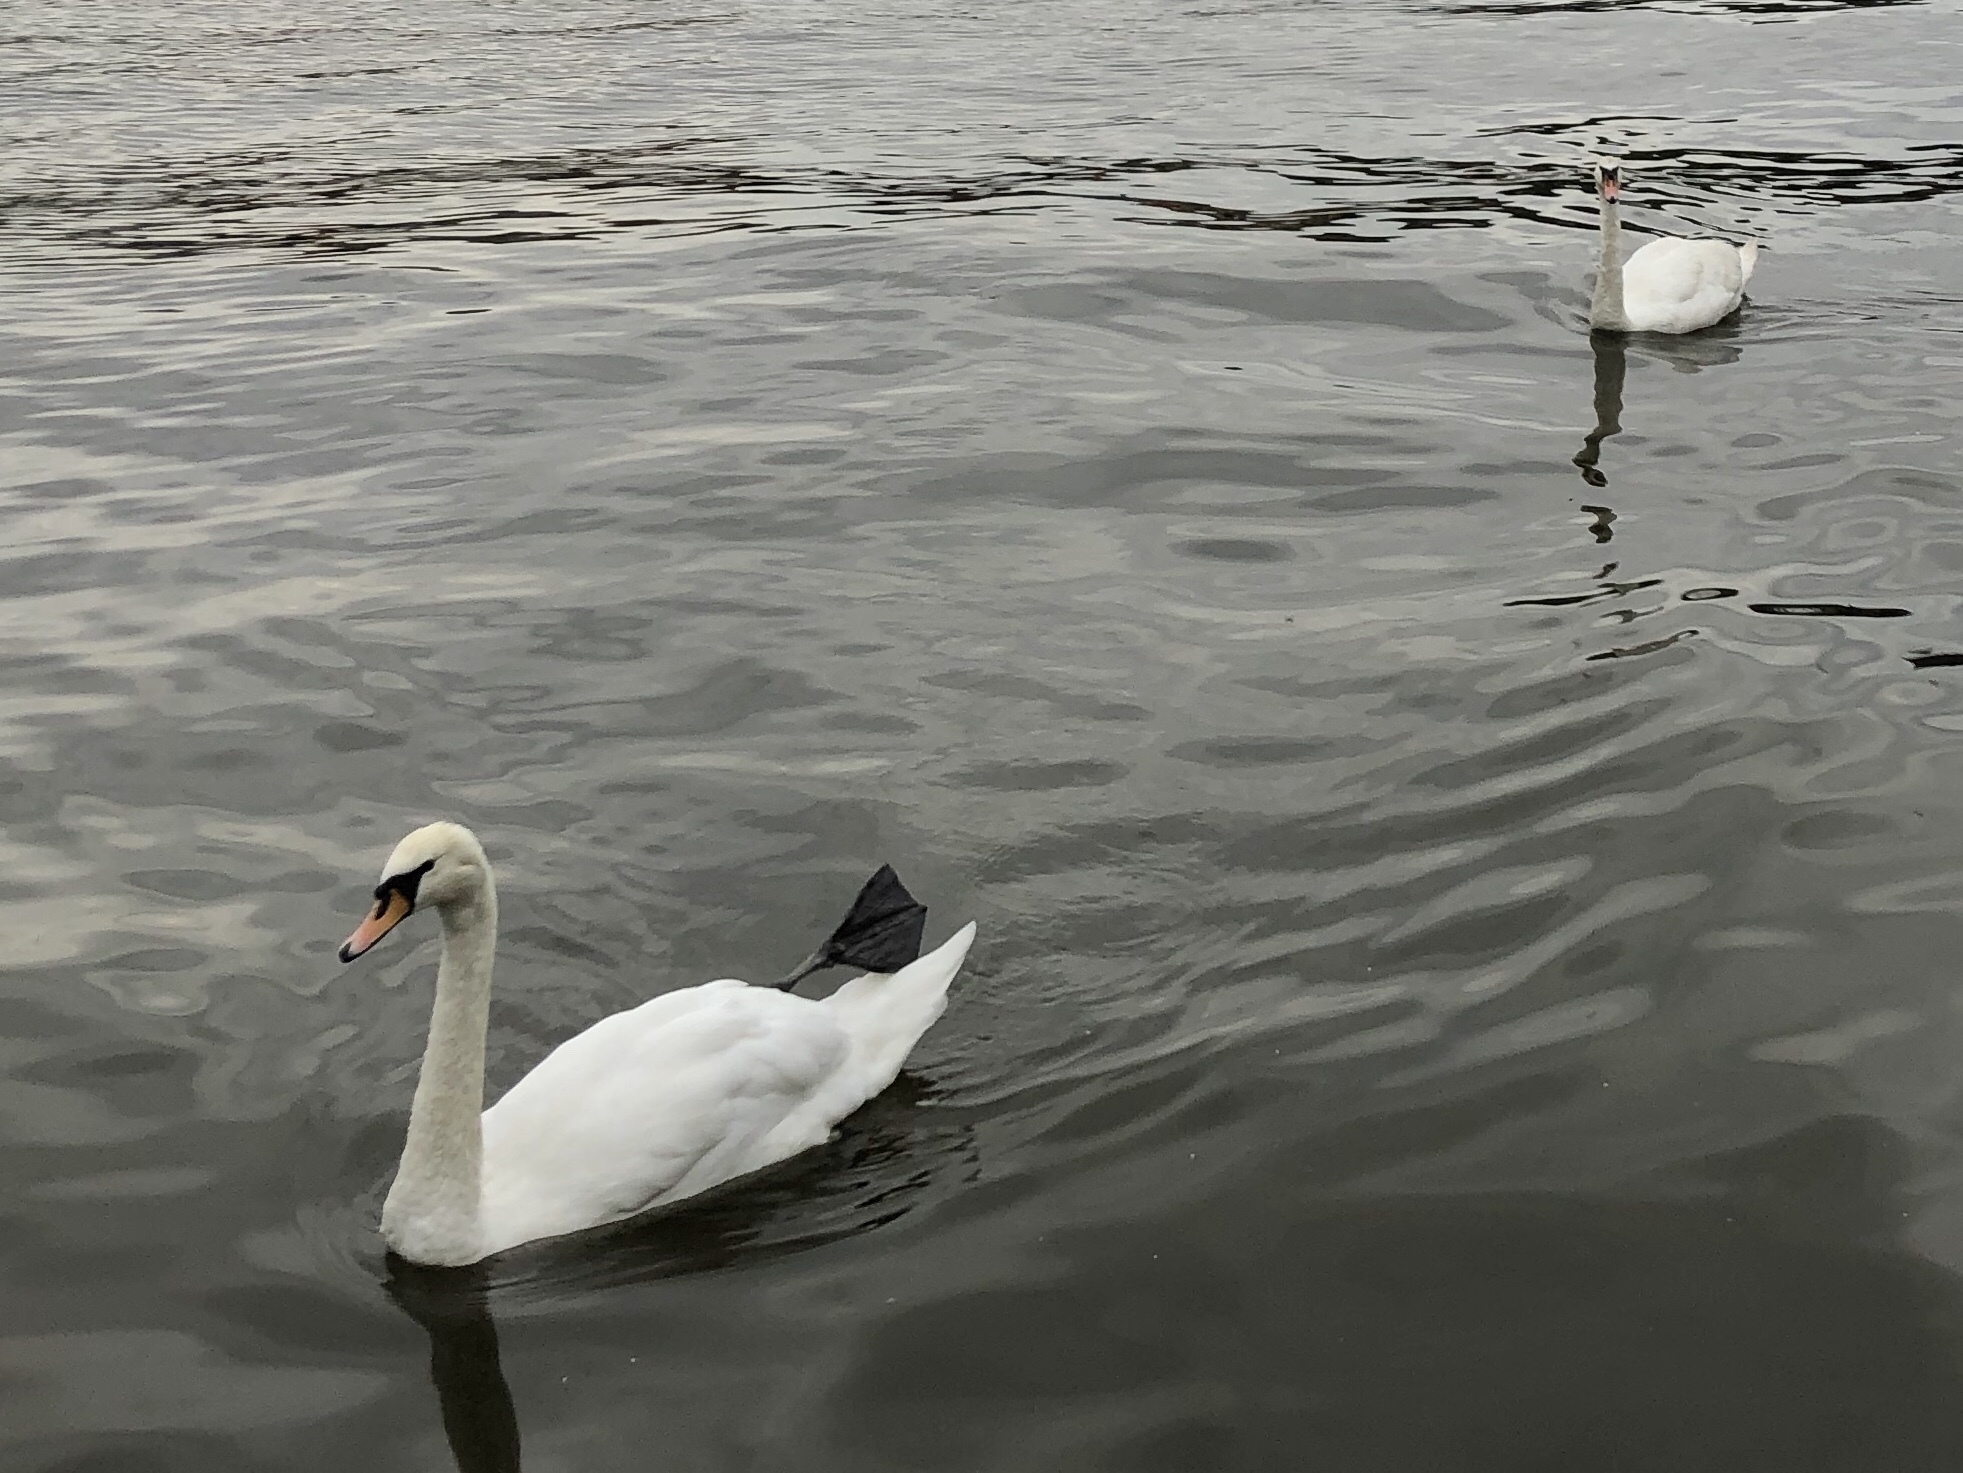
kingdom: Animalia
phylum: Chordata
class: Aves
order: Anseriformes
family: Anatidae
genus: Cygnus
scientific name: Cygnus olor
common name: Mute swan
